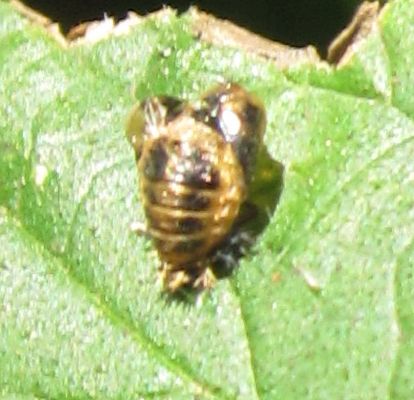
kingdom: Animalia
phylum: Arthropoda
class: Insecta
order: Coleoptera
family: Coccinellidae
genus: Harmonia
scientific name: Harmonia axyridis
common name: Harlequin ladybird
